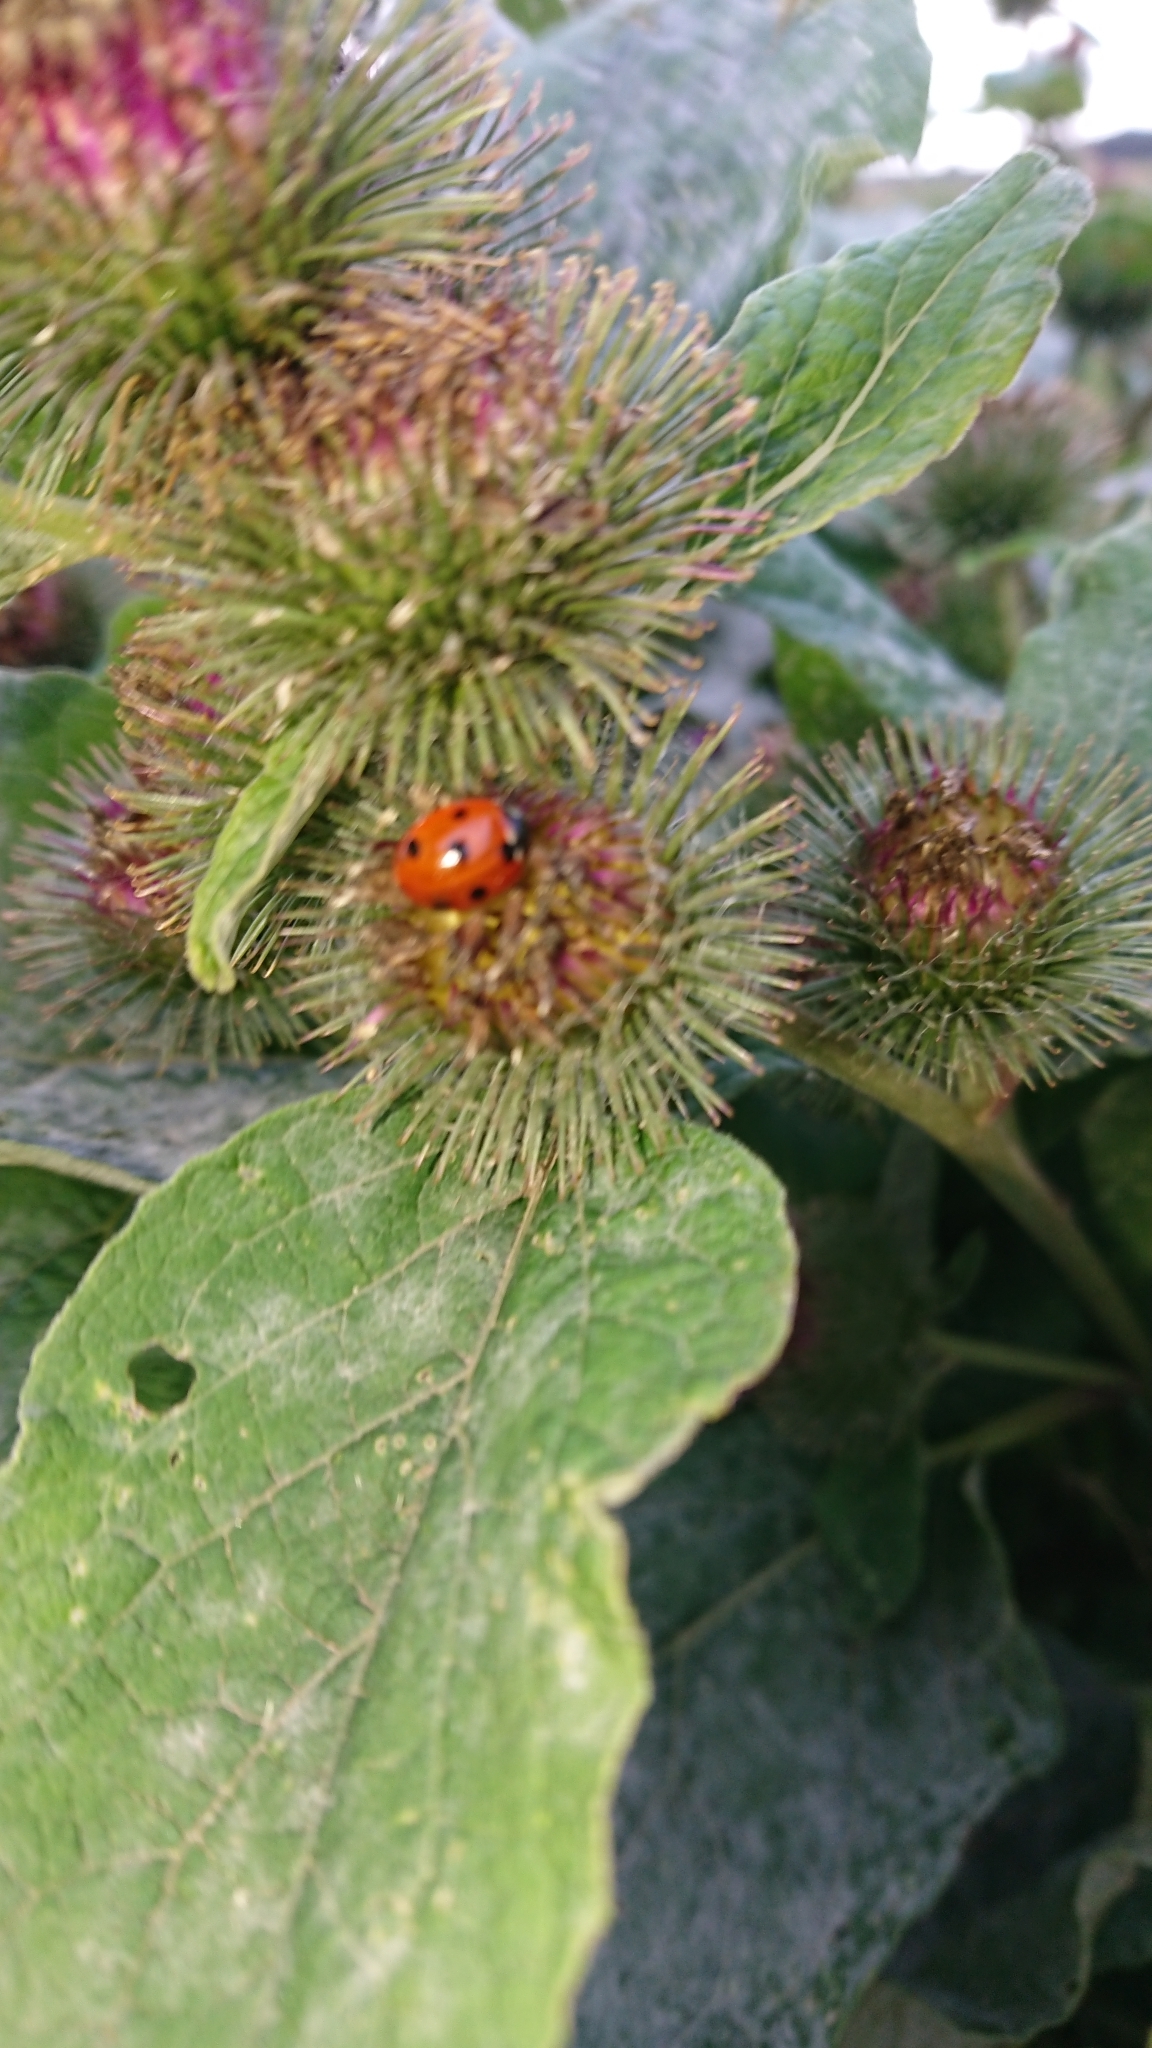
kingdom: Plantae
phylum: Tracheophyta
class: Magnoliopsida
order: Asterales
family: Asteraceae
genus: Arctium
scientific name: Arctium minus
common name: Lesser burdock
